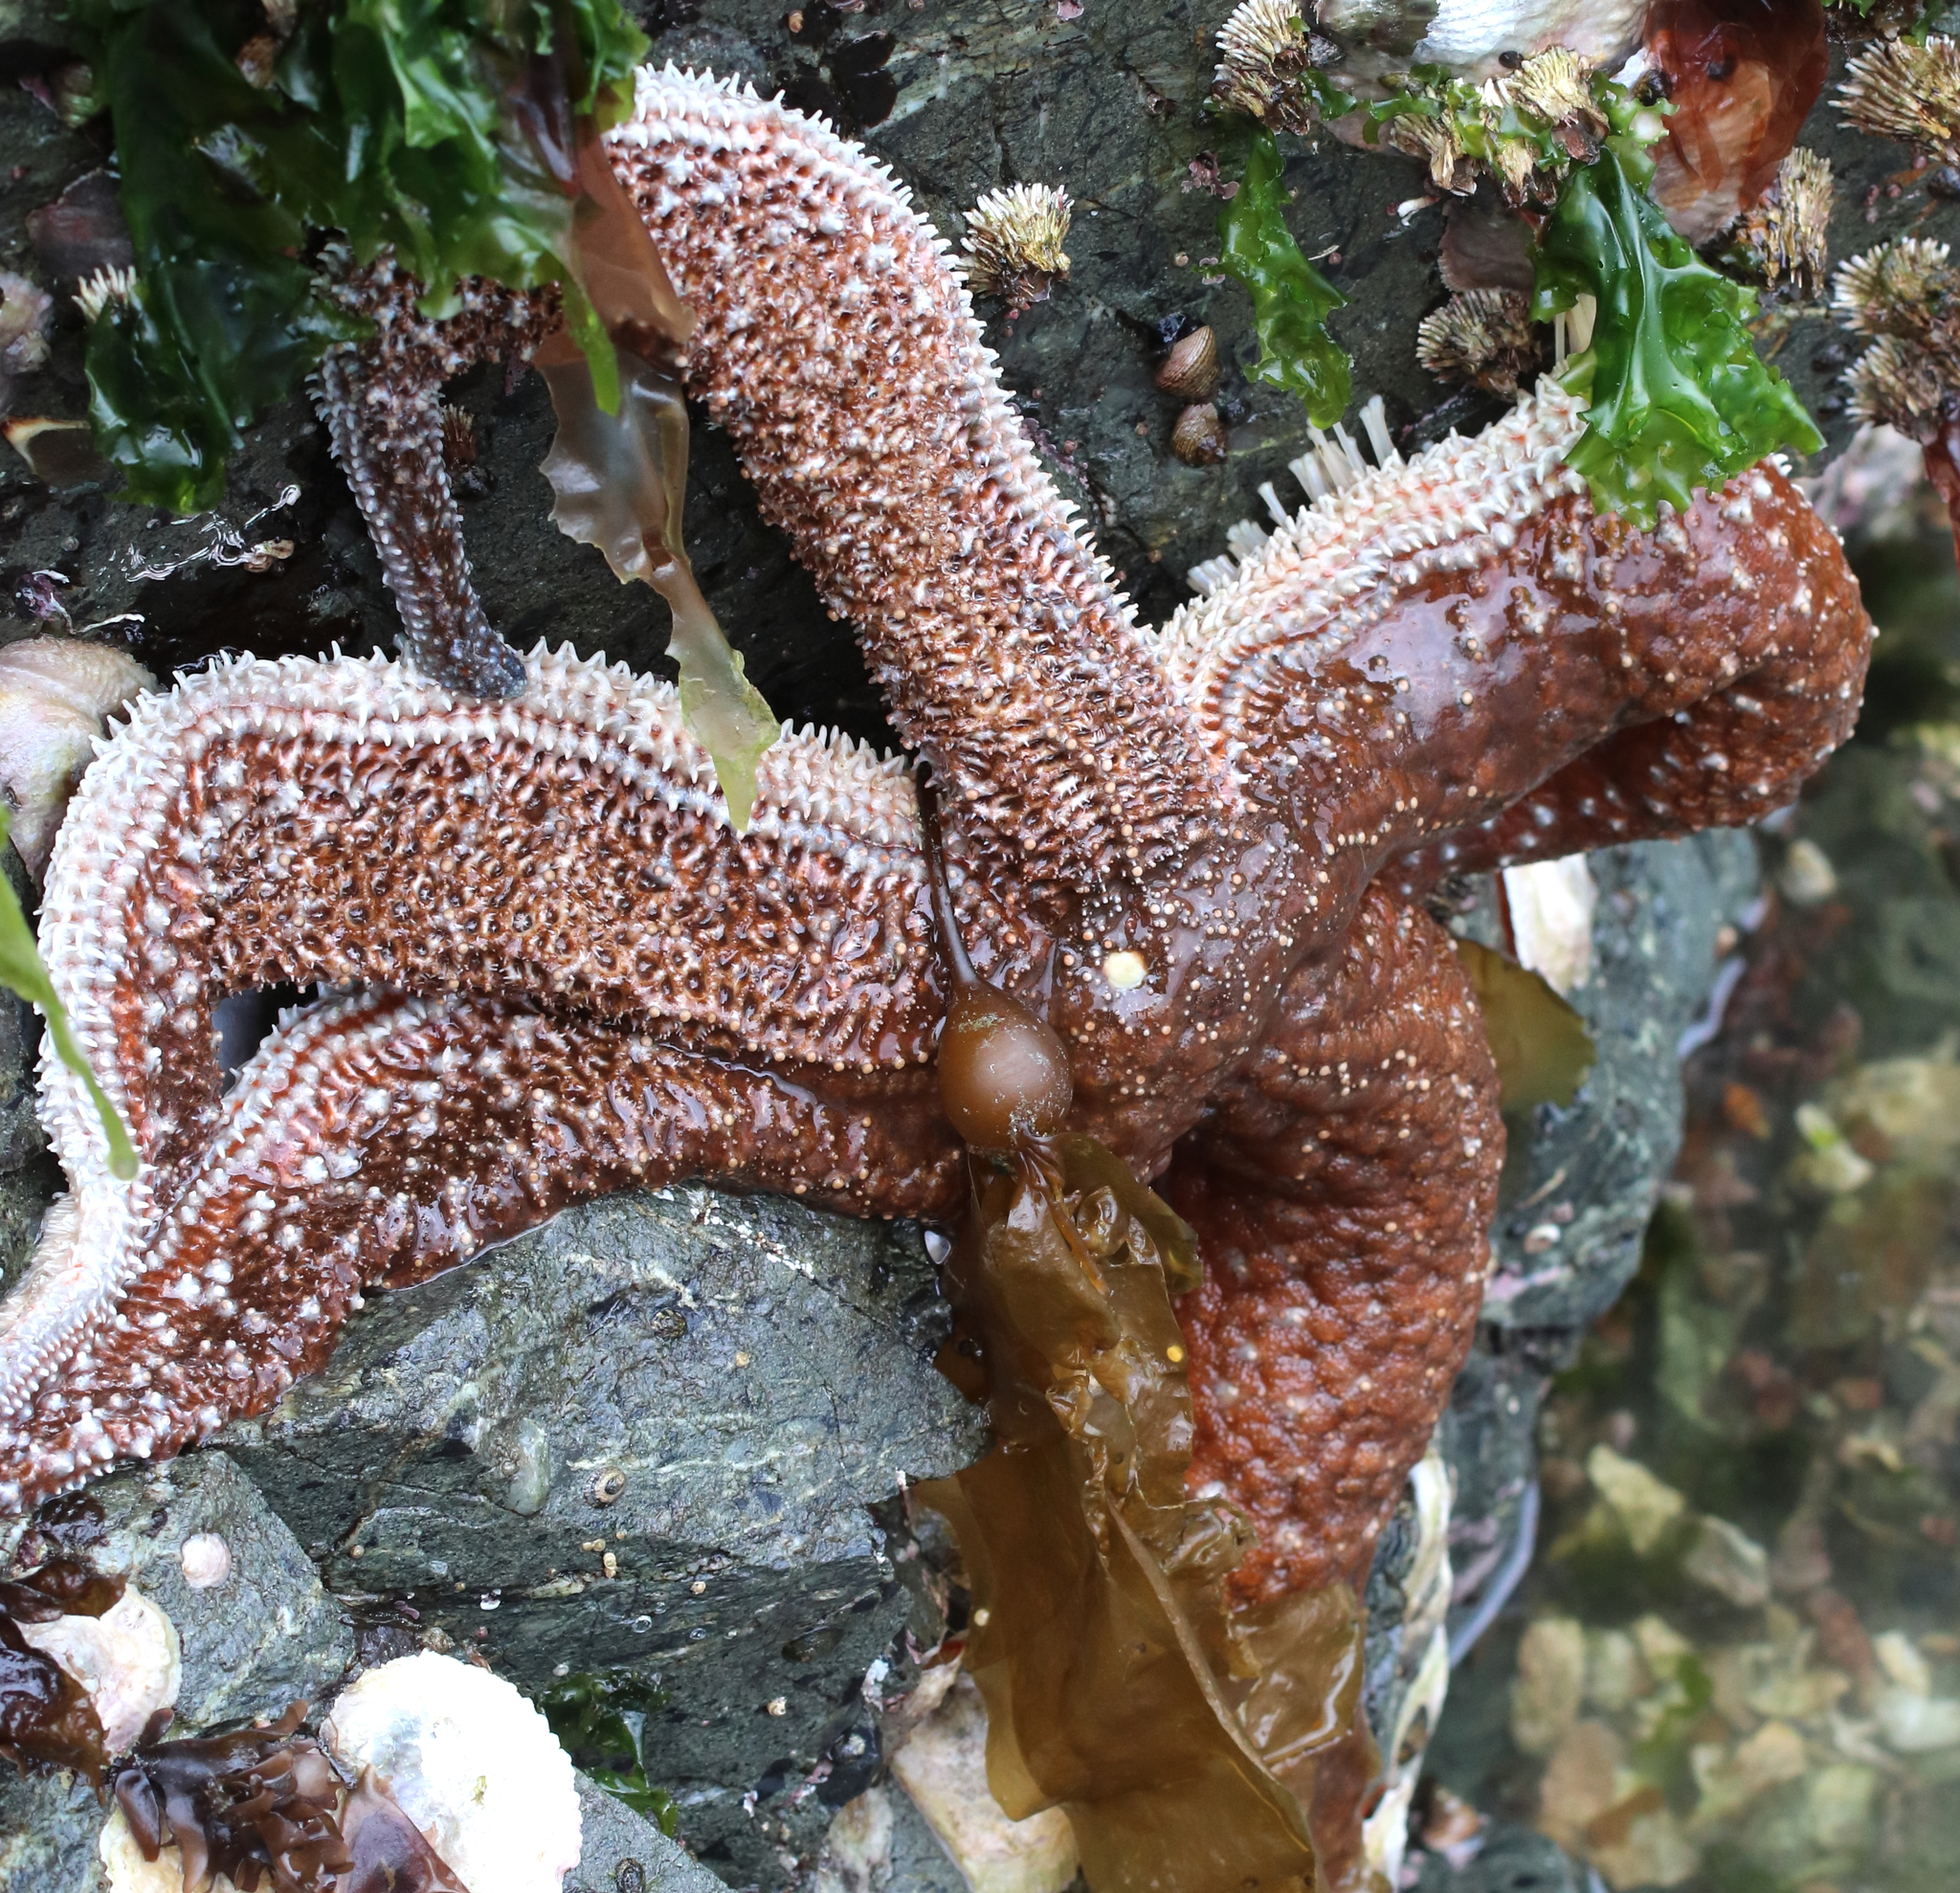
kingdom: Animalia
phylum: Echinodermata
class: Asteroidea
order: Forcipulatida
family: Asteriidae
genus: Evasterias
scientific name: Evasterias troschelii
